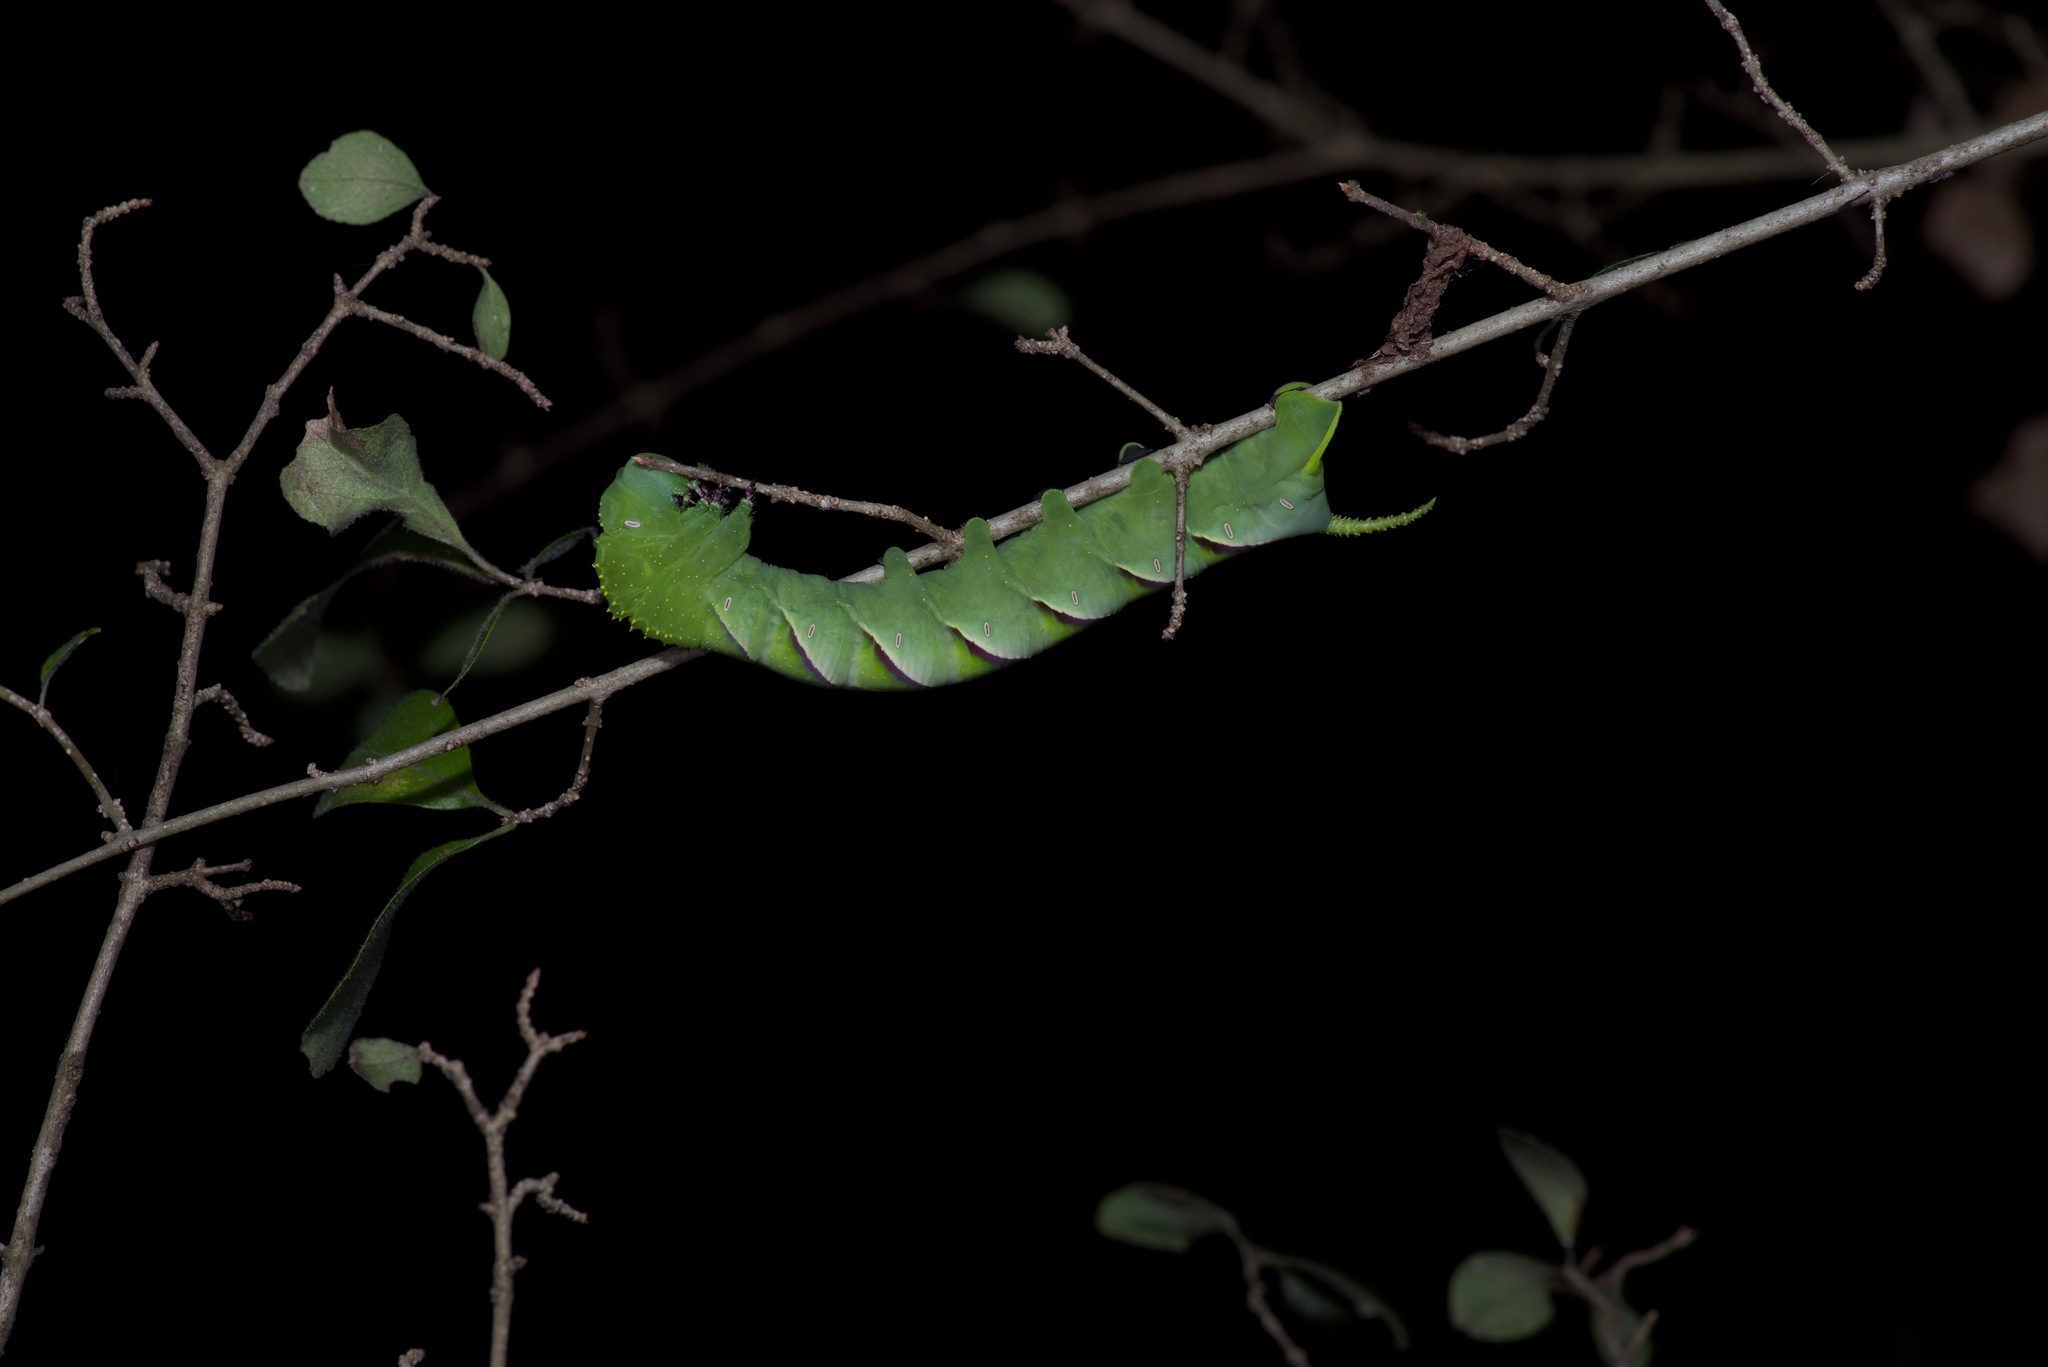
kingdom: Animalia
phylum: Arthropoda
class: Insecta
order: Lepidoptera
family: Sphingidae
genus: Manduca
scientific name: Manduca rustica
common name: Rustic sphinx
